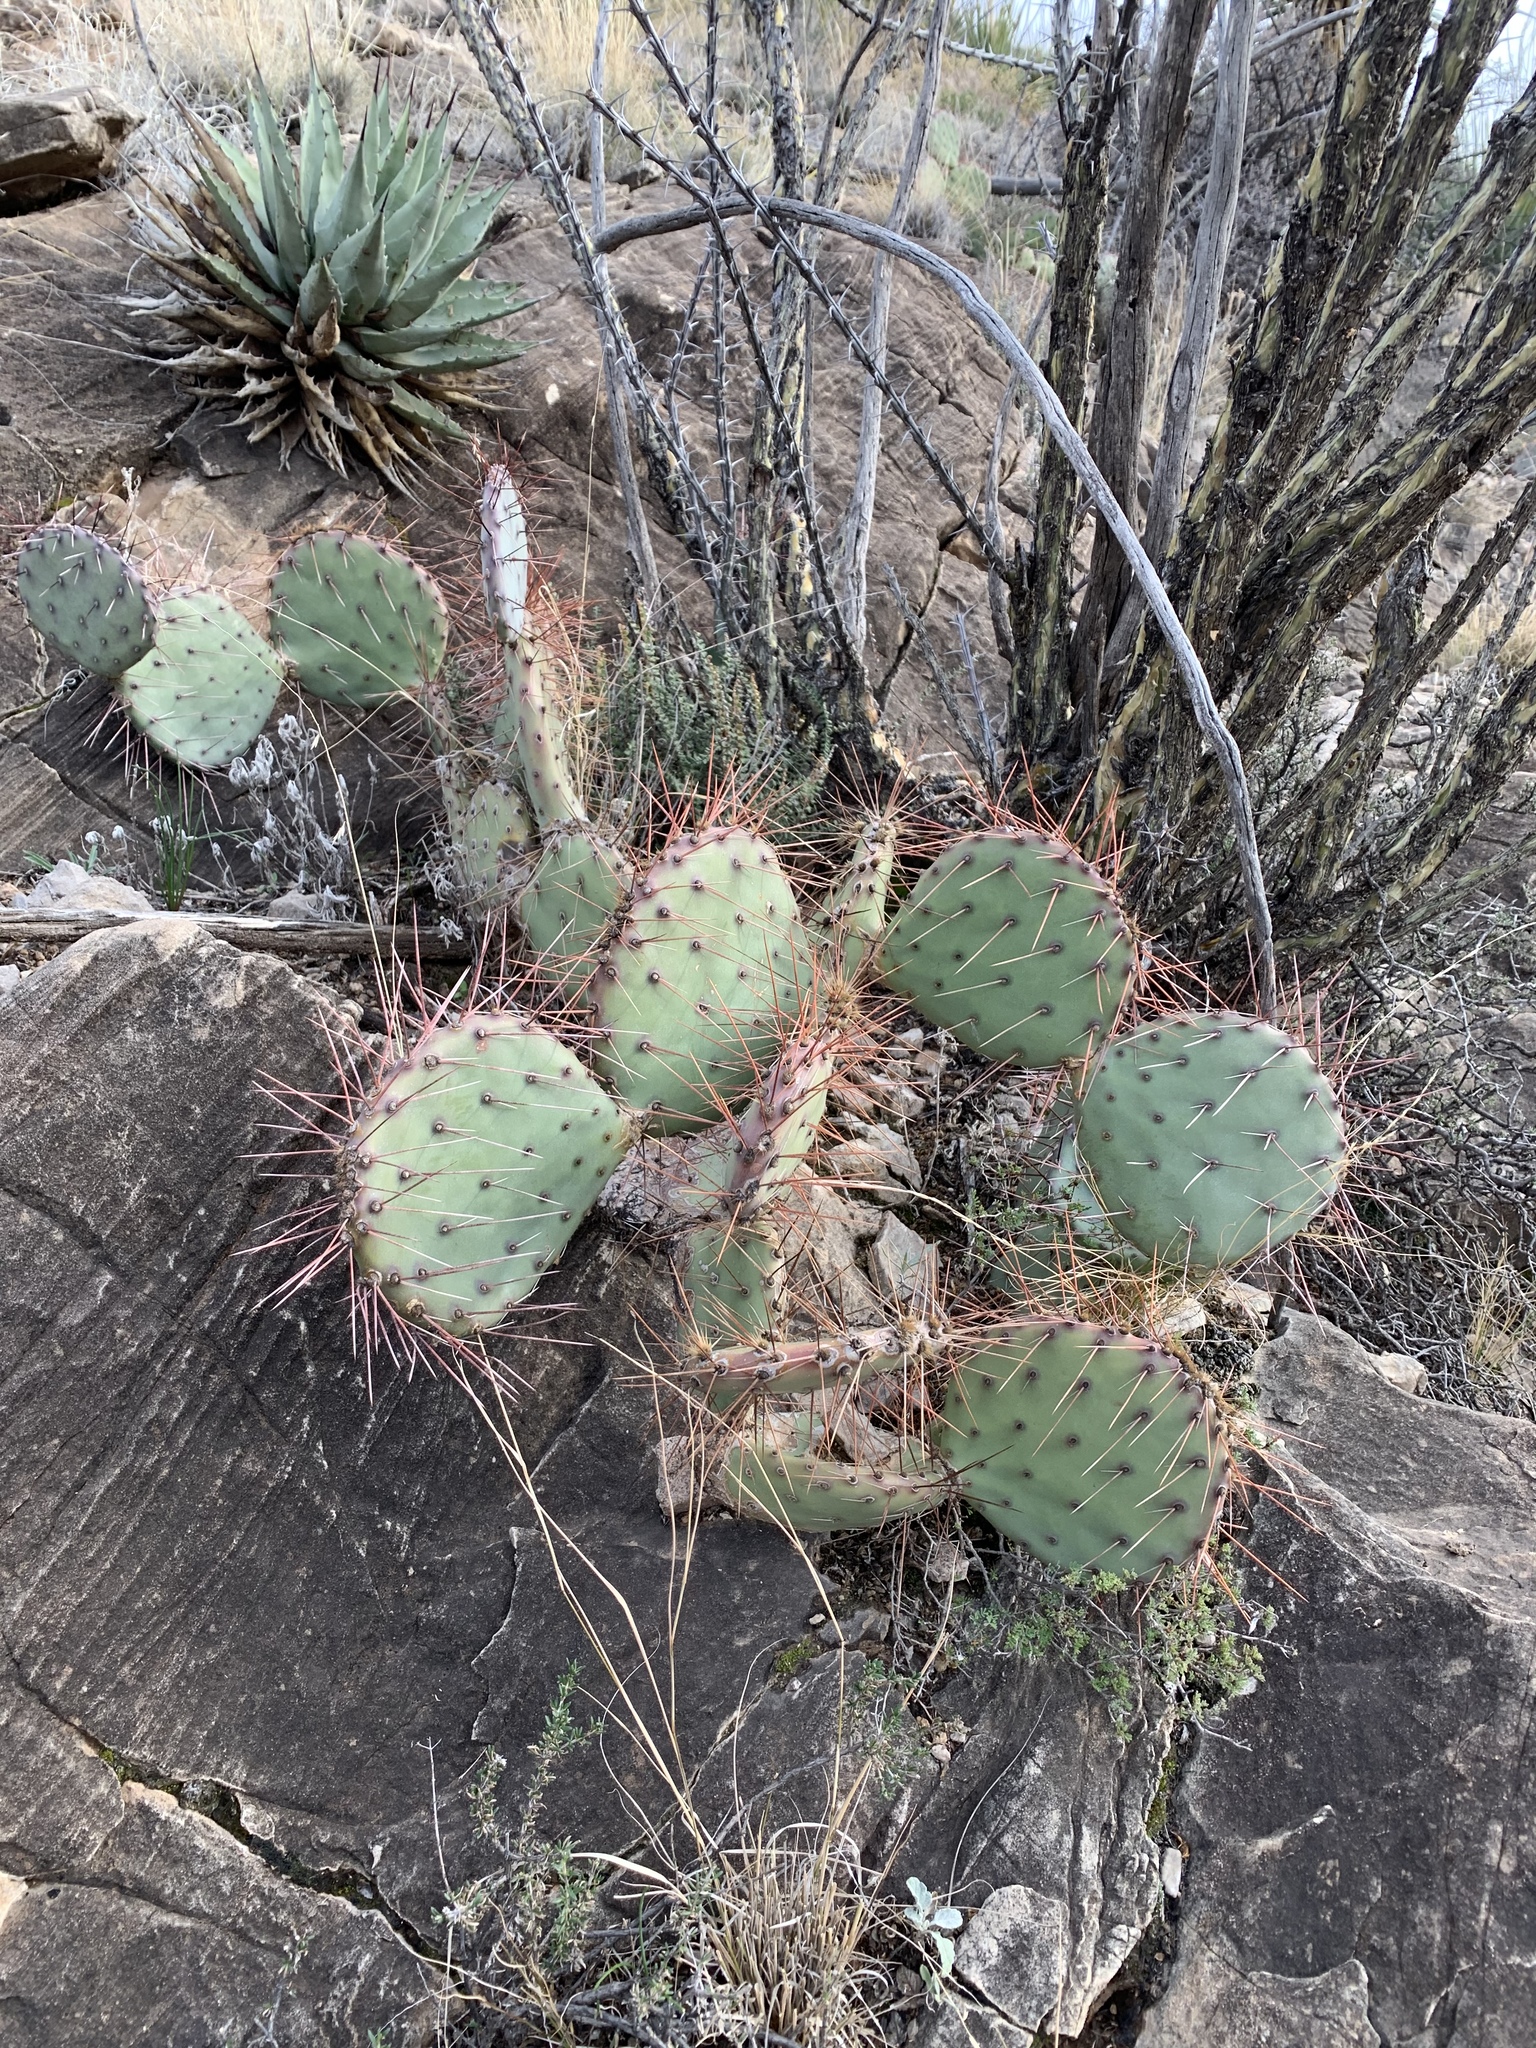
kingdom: Plantae
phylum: Tracheophyta
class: Magnoliopsida
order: Caryophyllales
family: Cactaceae
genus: Opuntia
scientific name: Opuntia phaeacantha
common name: New mexico prickly-pear
